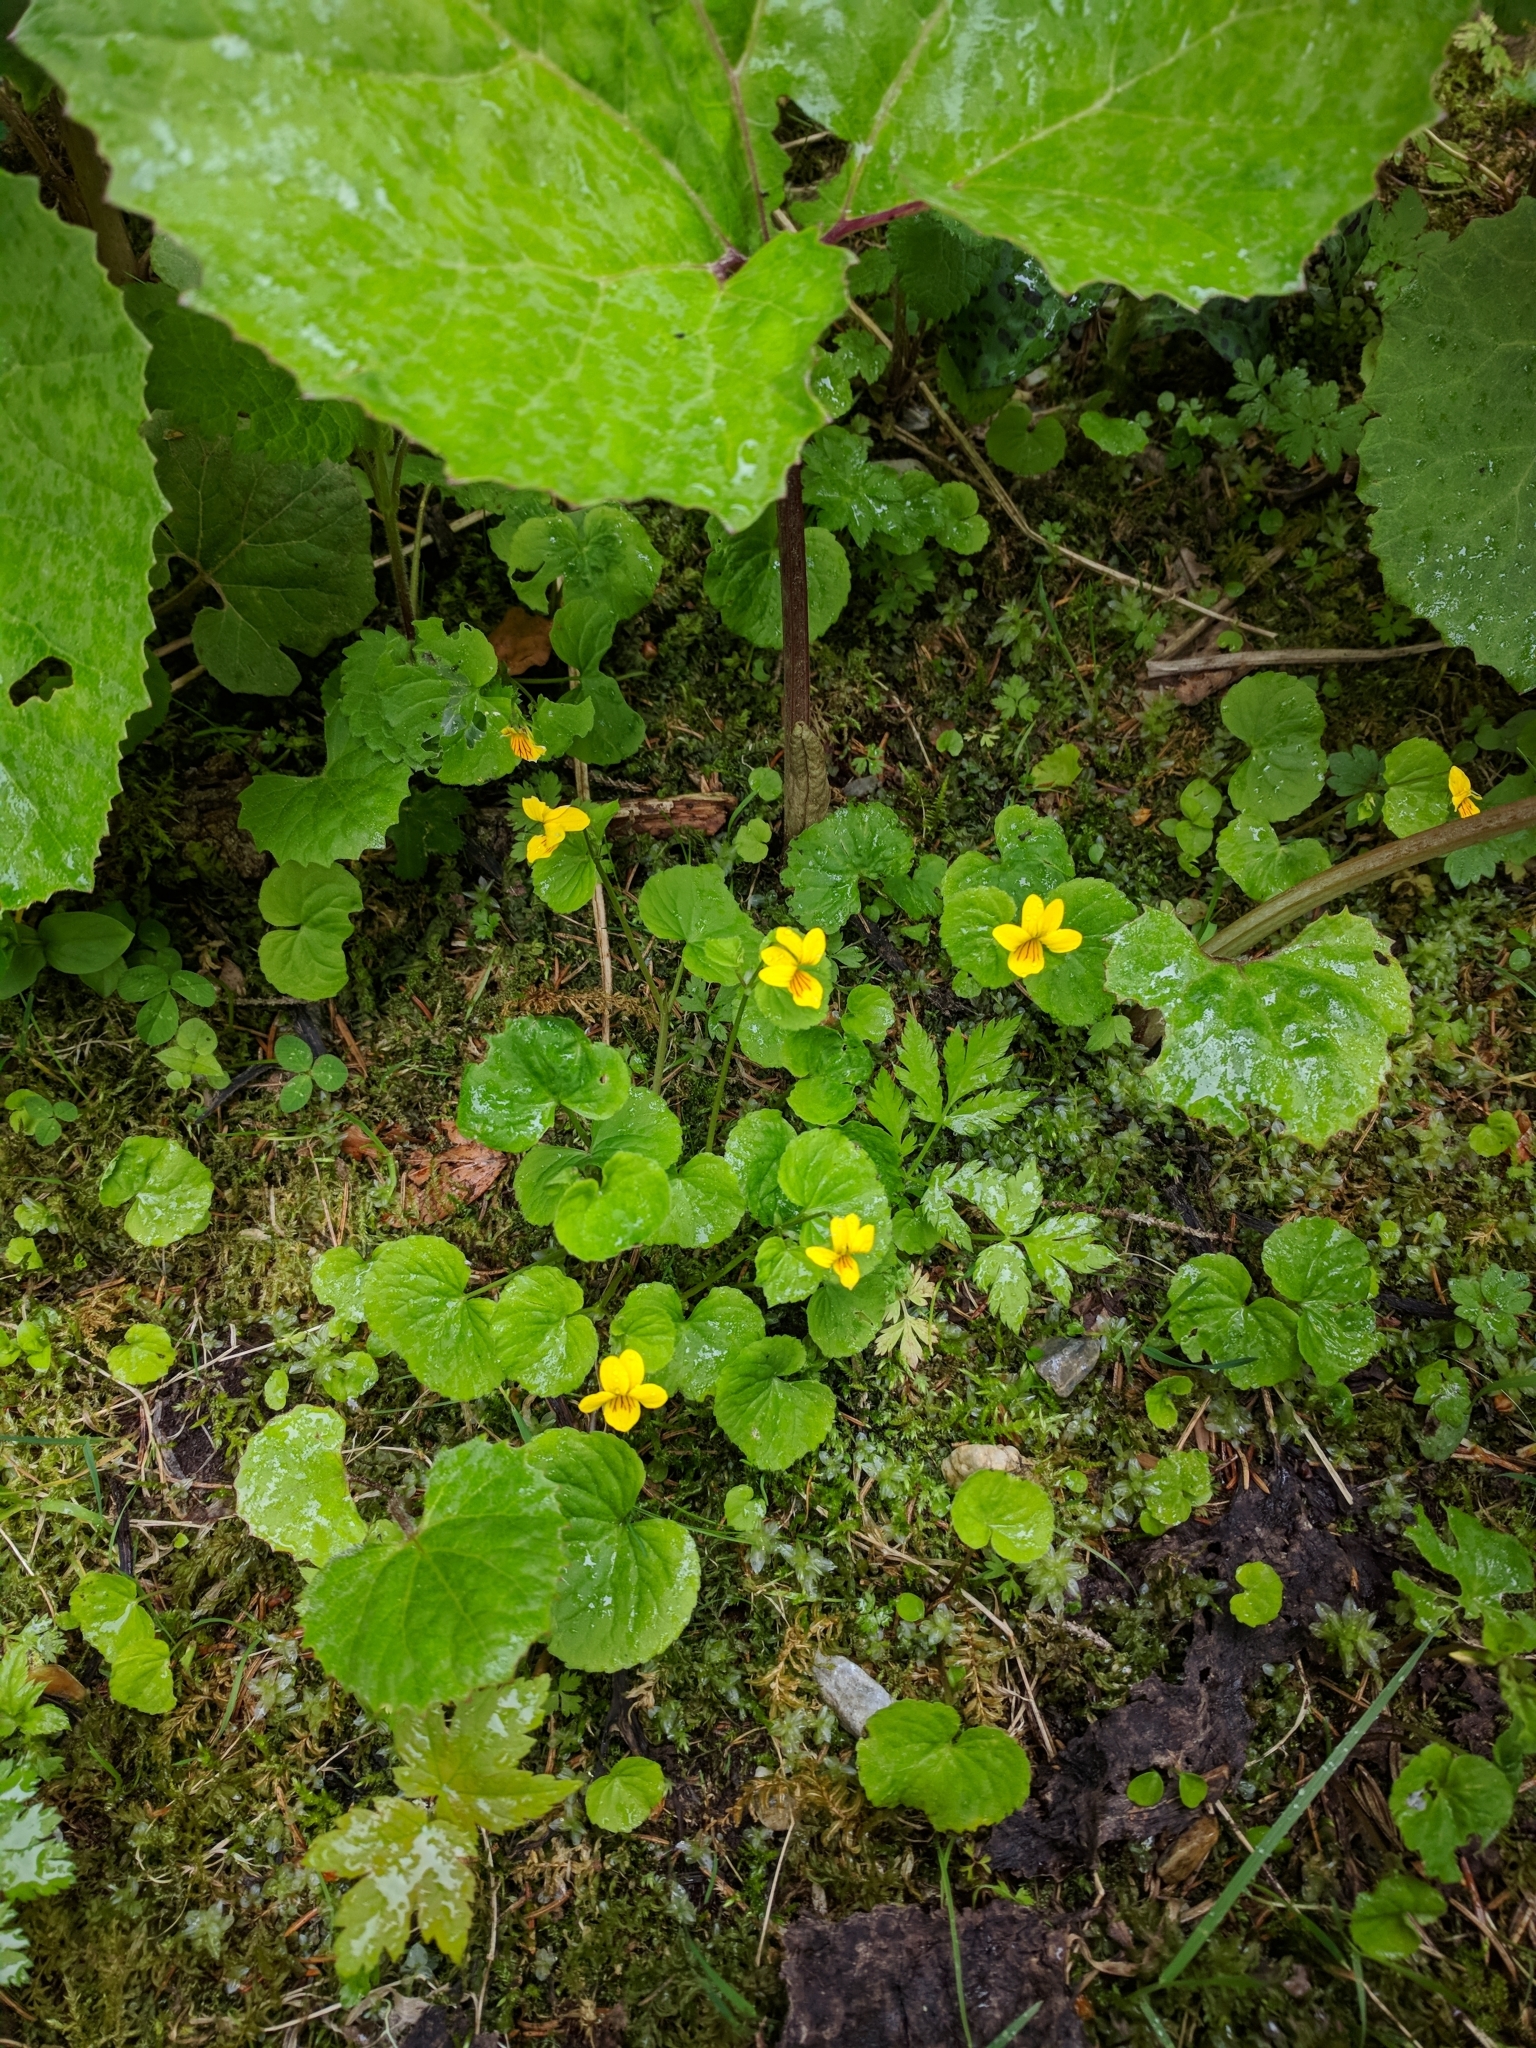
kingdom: Plantae
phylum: Tracheophyta
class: Magnoliopsida
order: Malpighiales
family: Violaceae
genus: Viola
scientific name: Viola biflora
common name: Alpine yellow violet
